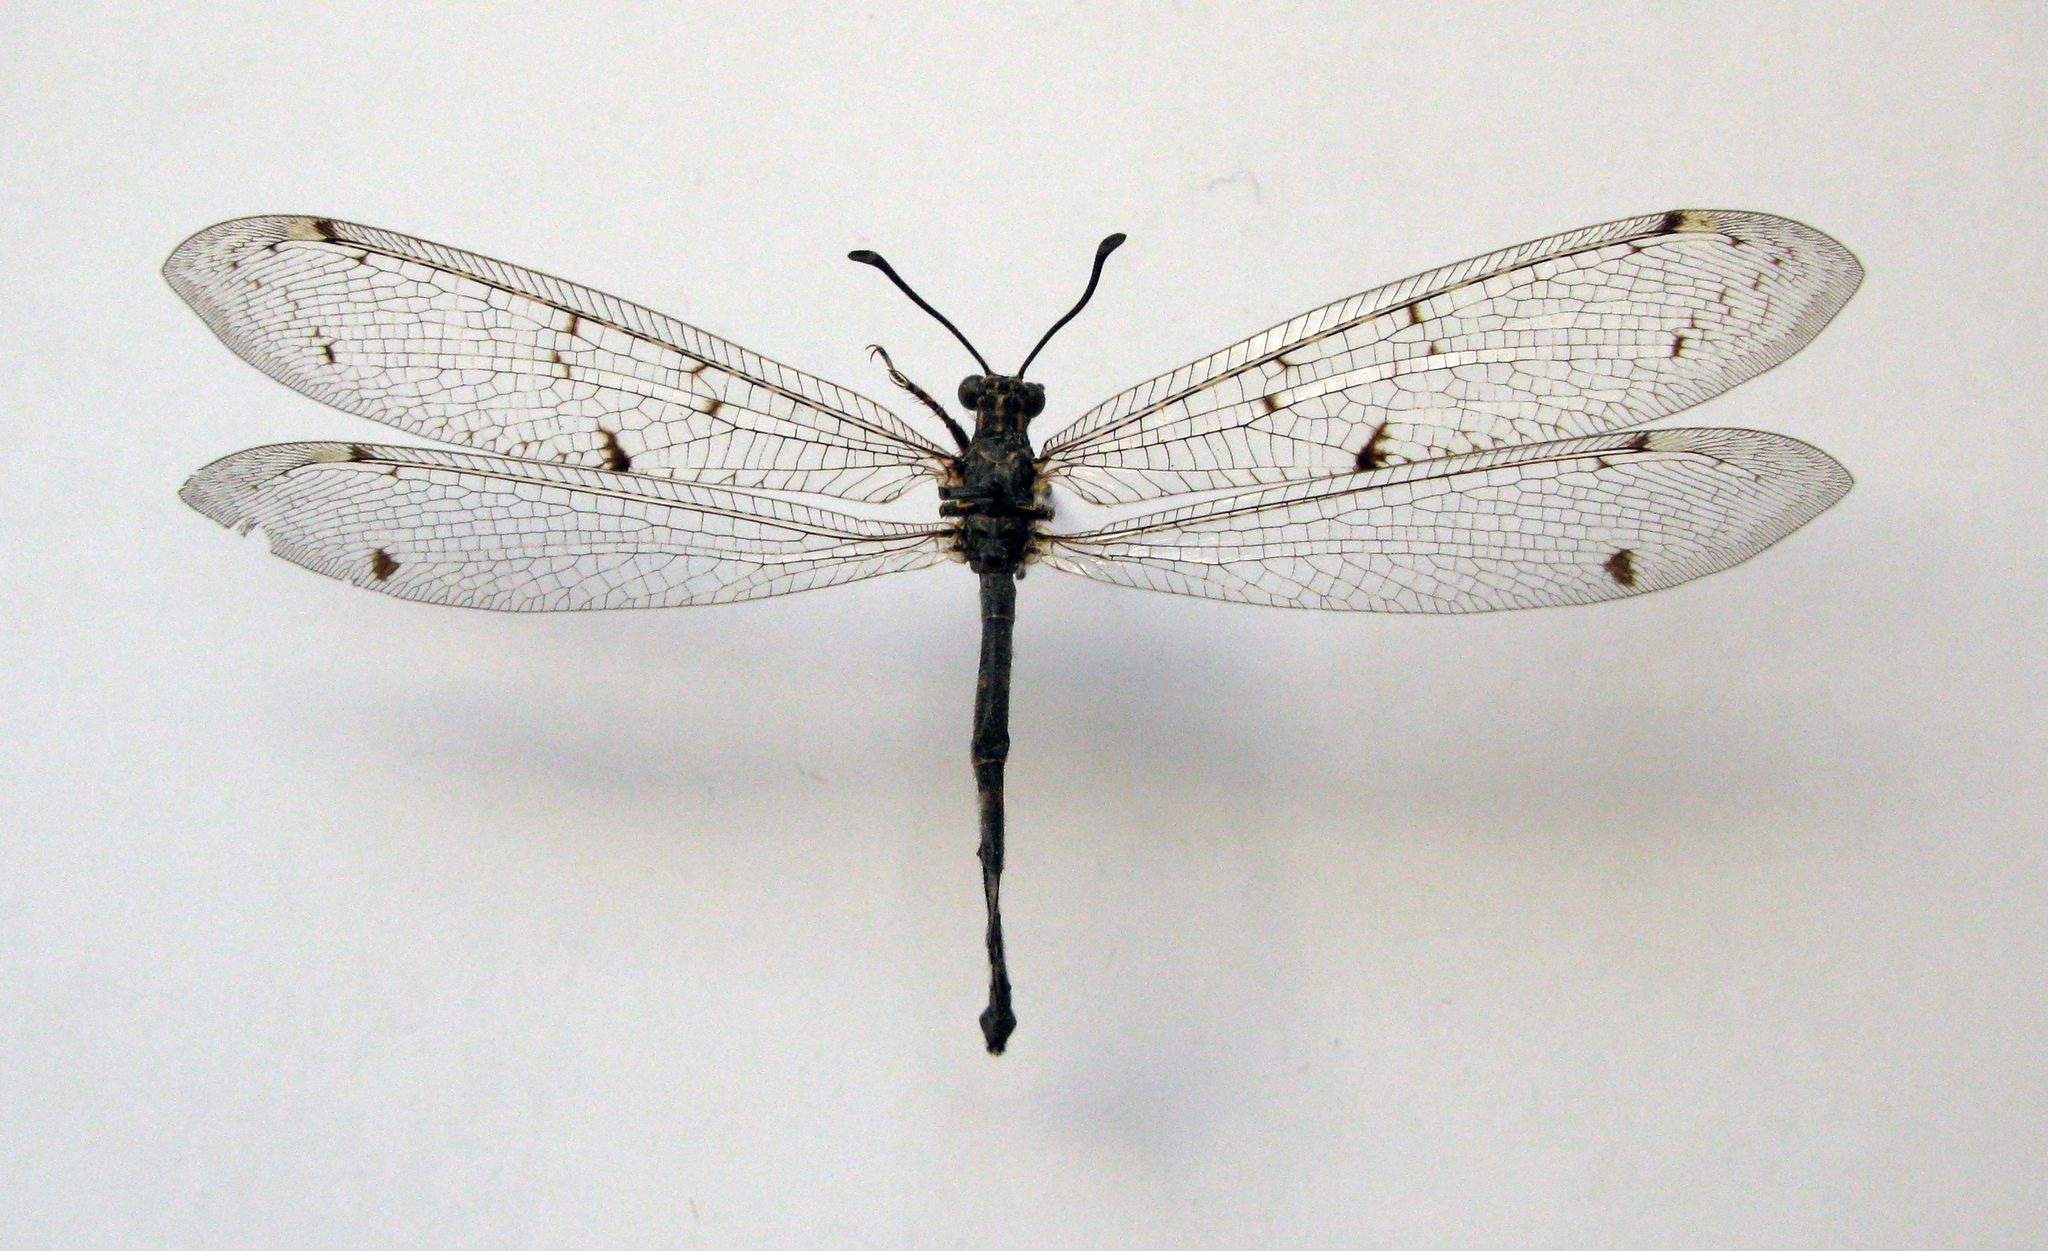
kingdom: Animalia
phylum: Arthropoda
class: Insecta
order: Neuroptera
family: Myrmeleontidae
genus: Distoleon
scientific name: Distoleon tetragrammicus
